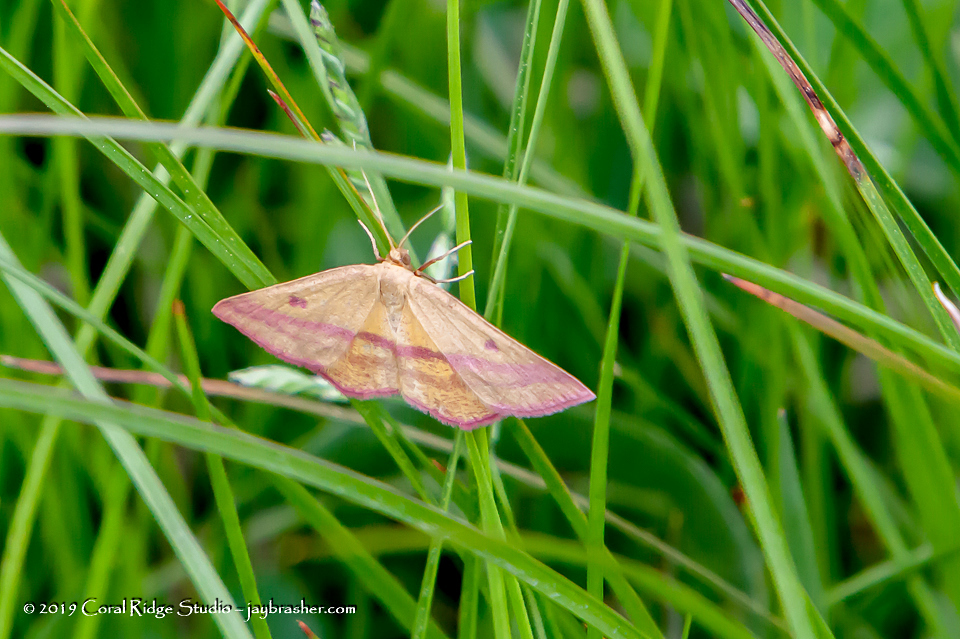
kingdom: Animalia
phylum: Arthropoda
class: Insecta
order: Lepidoptera
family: Geometridae
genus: Haematopis
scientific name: Haematopis grataria
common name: Chickweed geometer
